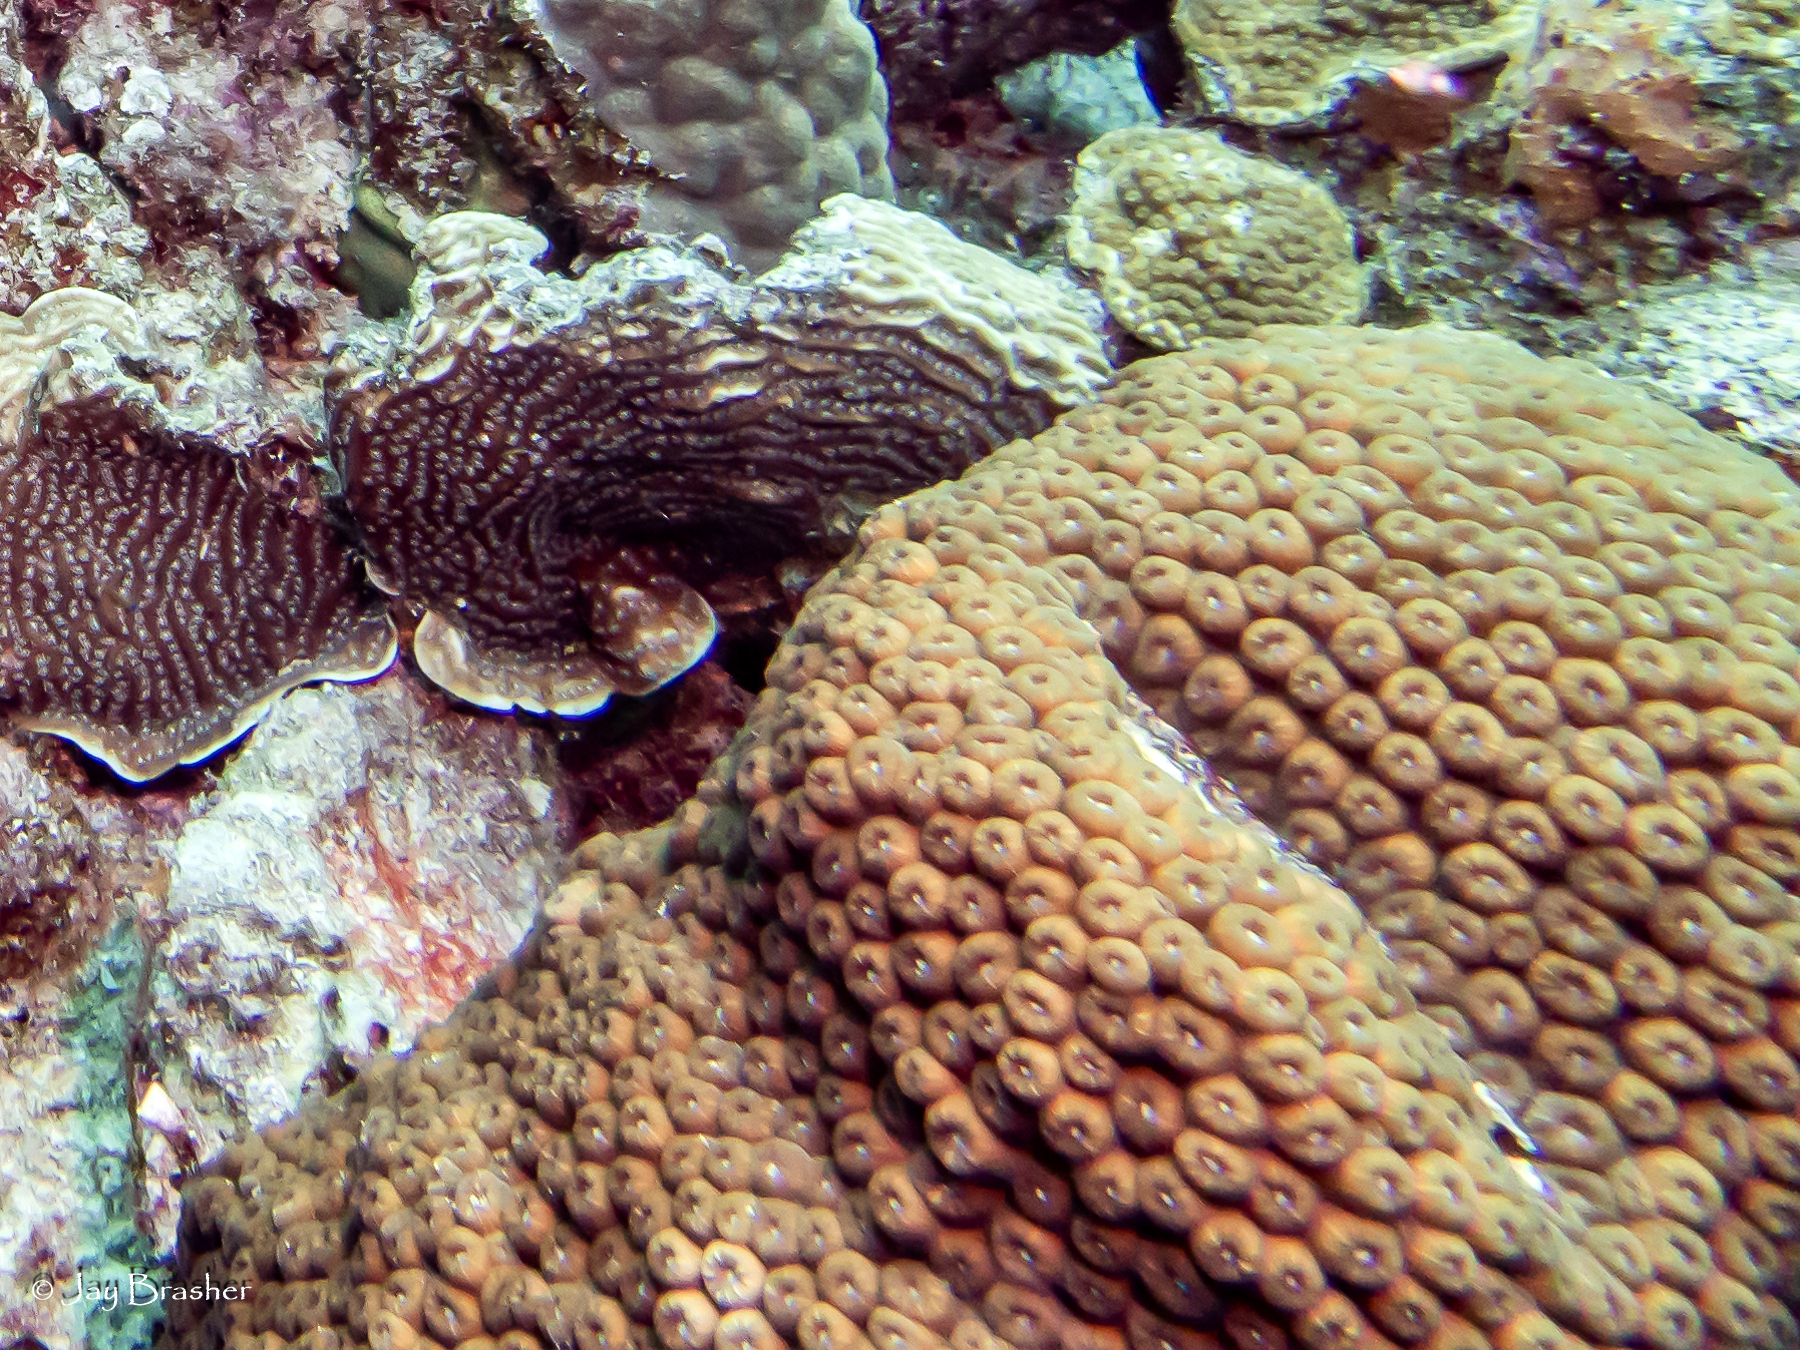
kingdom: Animalia
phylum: Cnidaria
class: Anthozoa
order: Scleractinia
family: Montastraeidae
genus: Montastraea
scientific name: Montastraea cavernosa
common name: Great star coral
